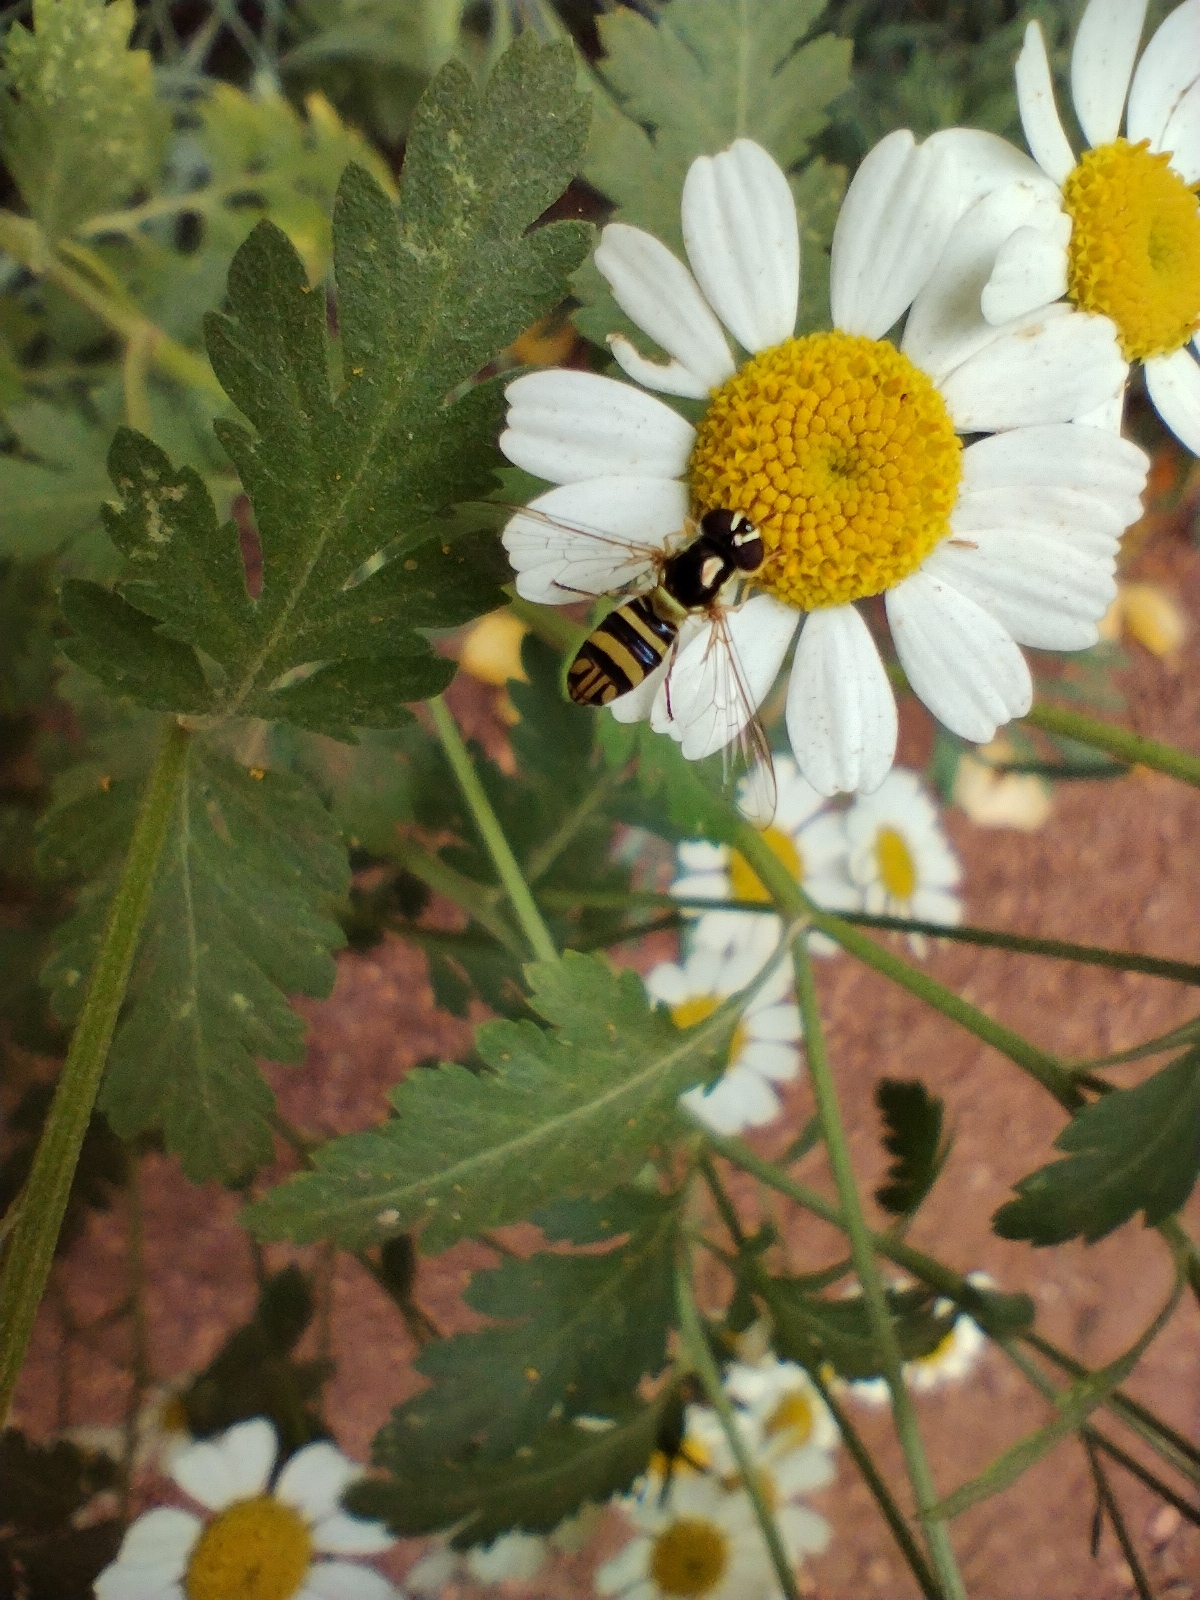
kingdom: Animalia
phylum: Arthropoda
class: Insecta
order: Diptera
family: Syrphidae
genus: Allograpta
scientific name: Allograpta obliqua
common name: Common oblique syrphid
